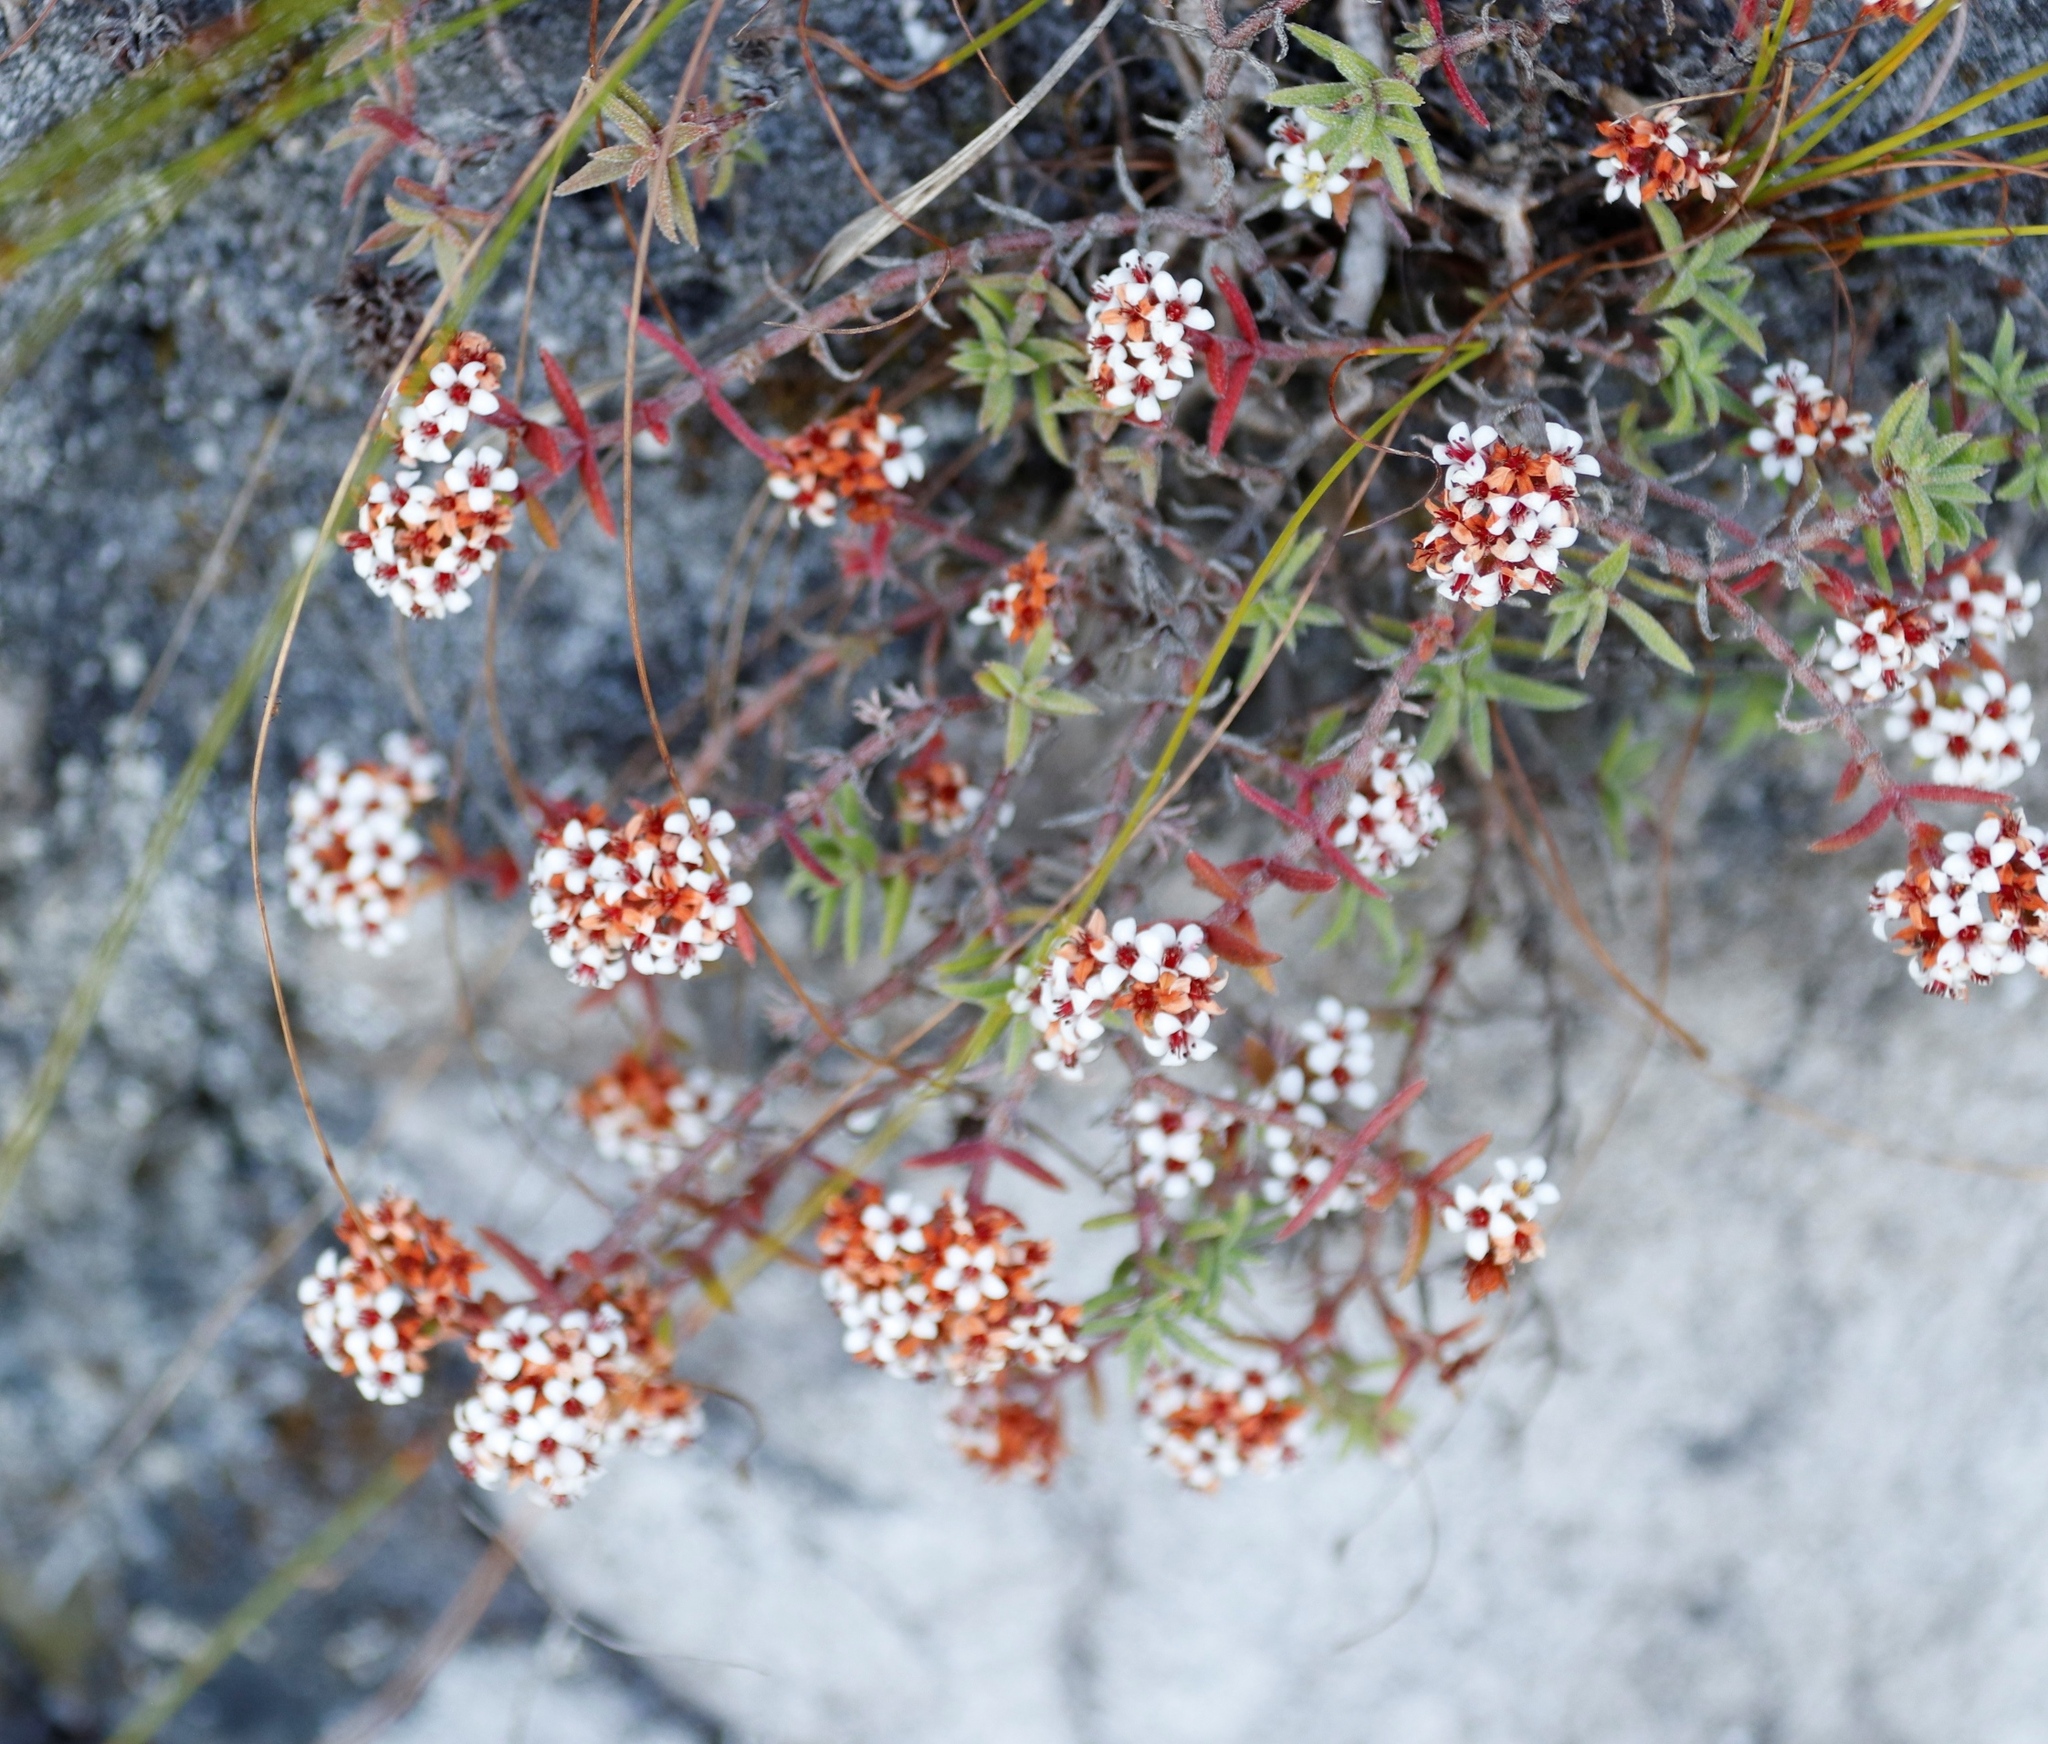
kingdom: Plantae
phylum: Tracheophyta
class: Magnoliopsida
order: Saxifragales
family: Crassulaceae
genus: Crassula
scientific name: Crassula pruinosa
